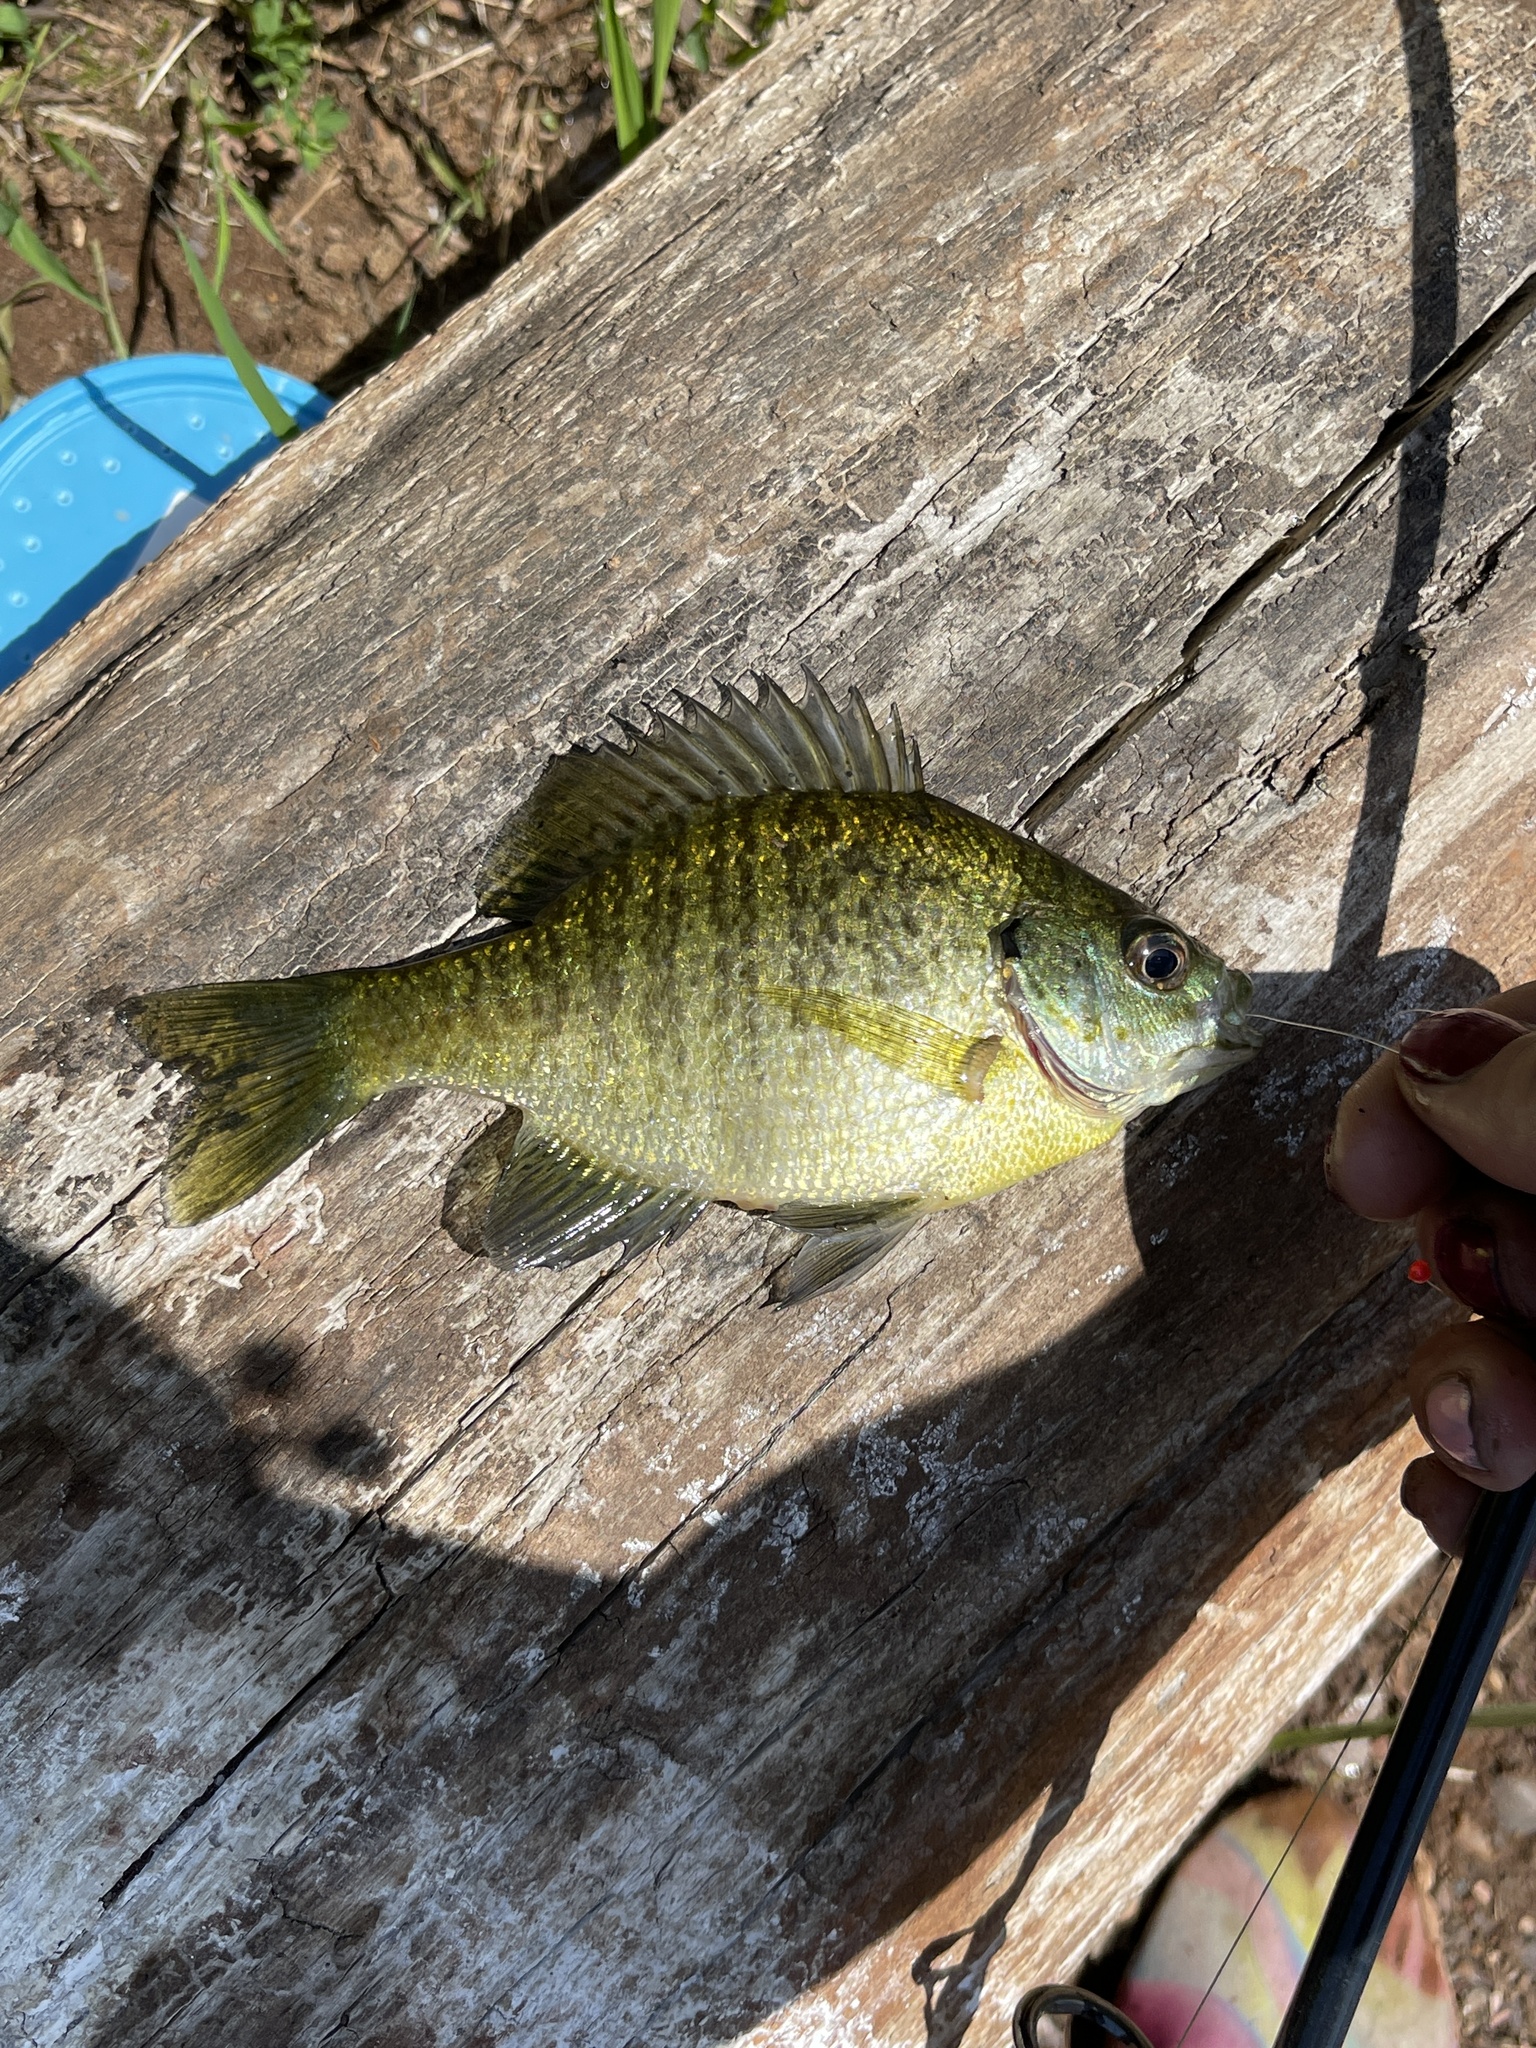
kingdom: Animalia
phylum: Chordata
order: Perciformes
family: Centrarchidae
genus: Lepomis
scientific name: Lepomis macrochirus
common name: Bluegill
